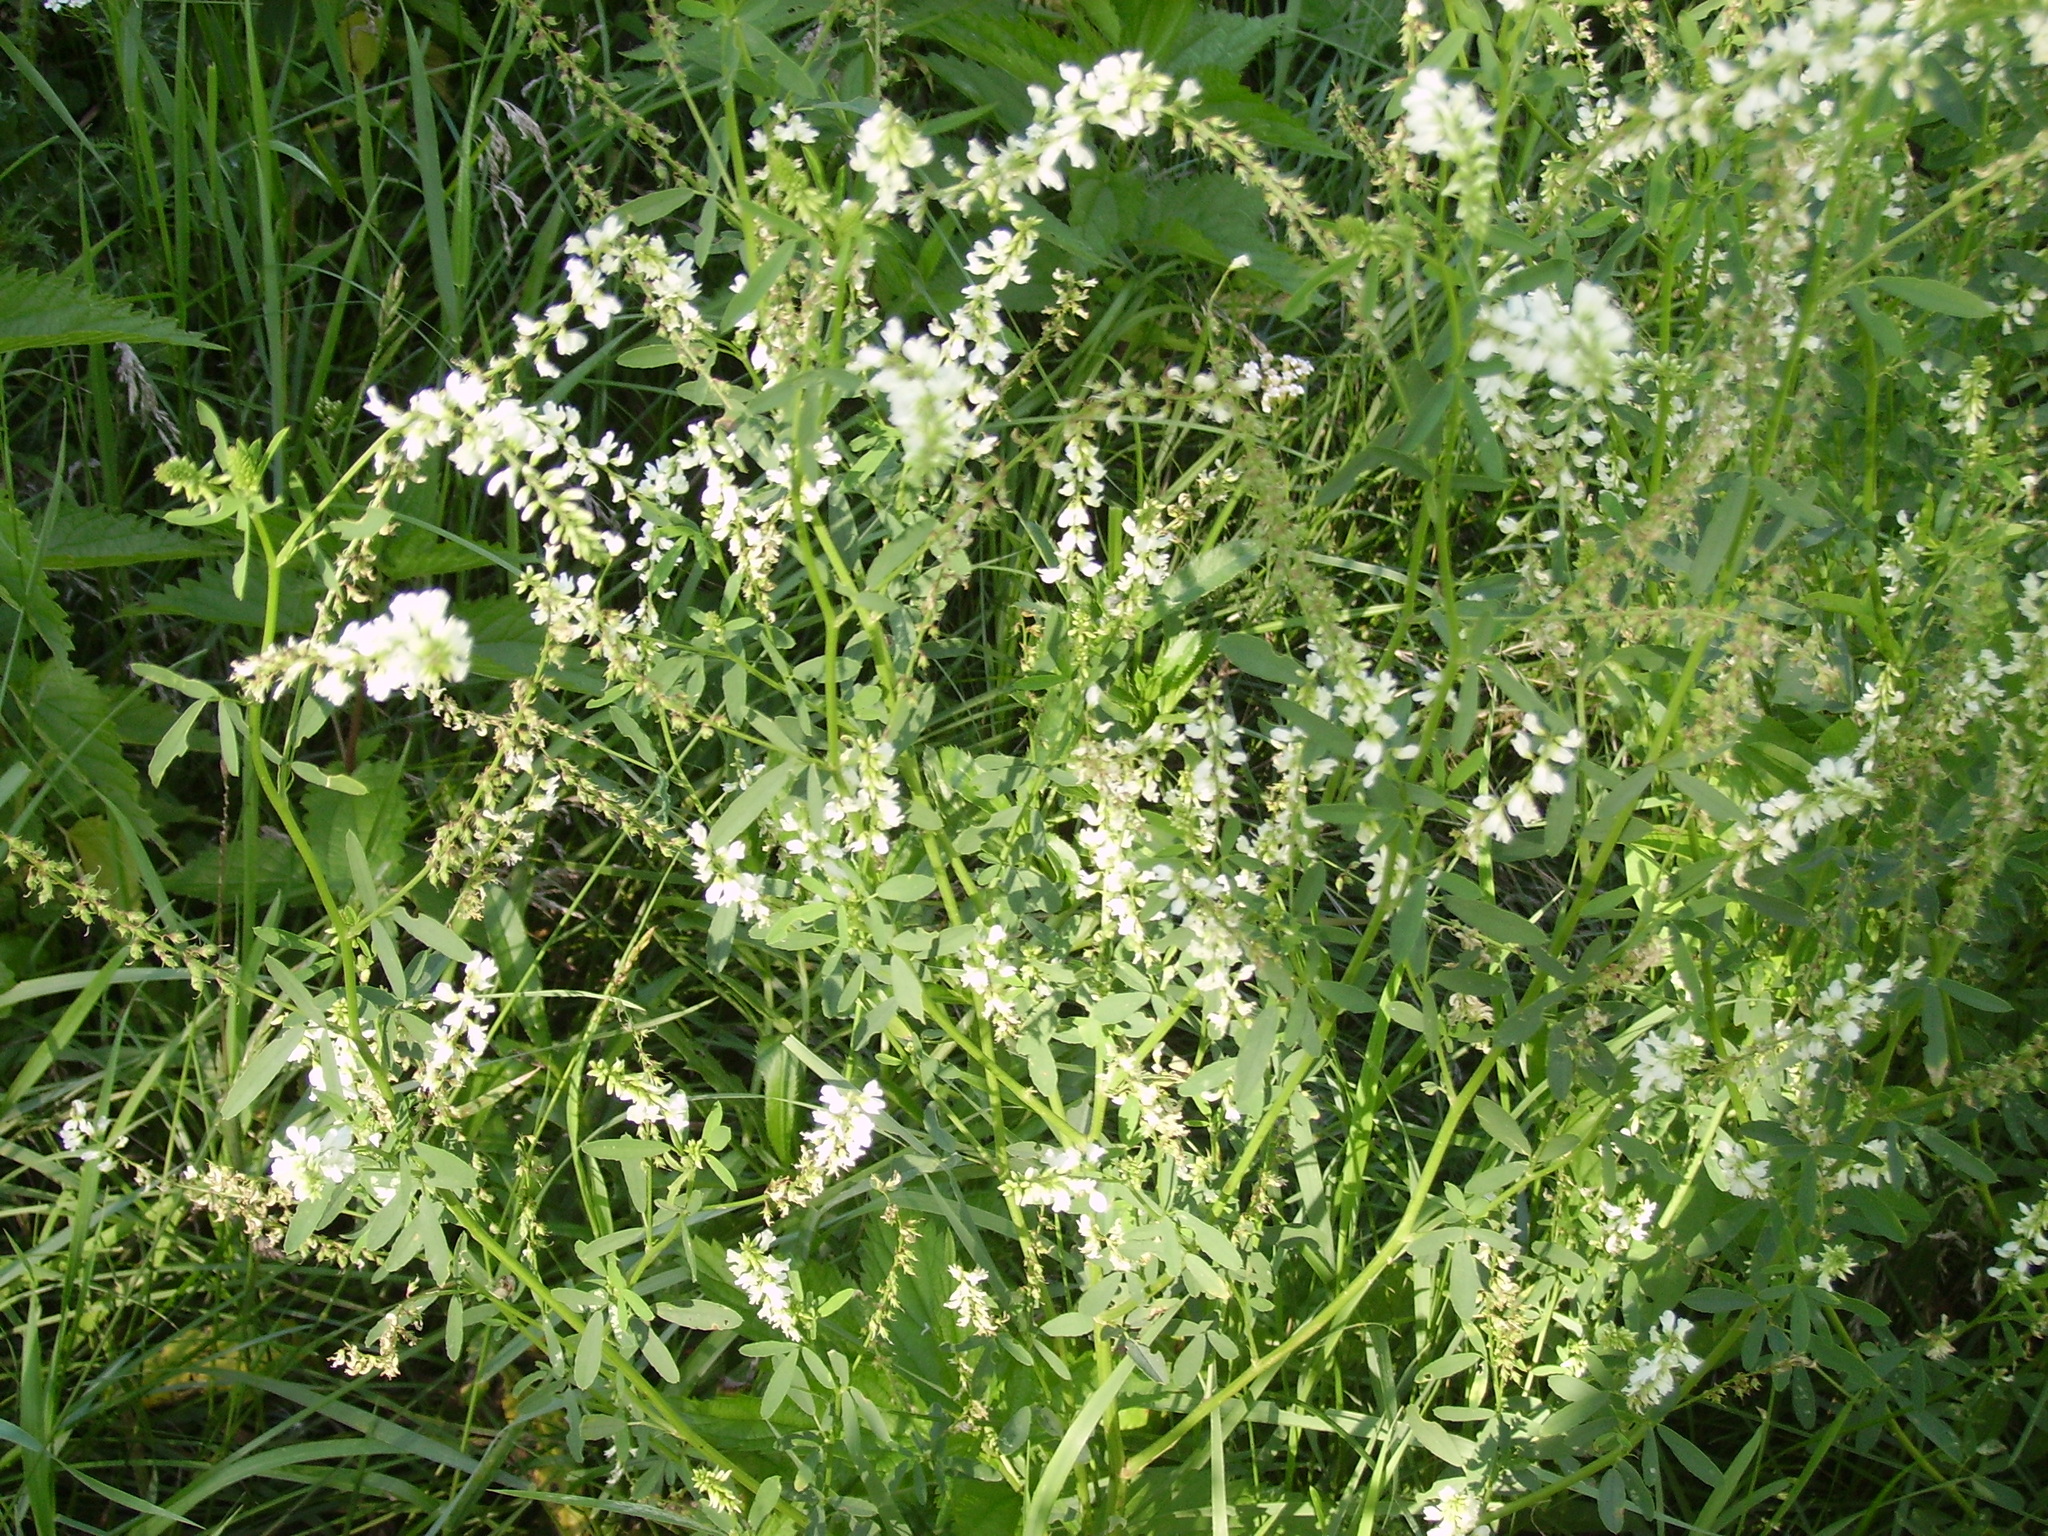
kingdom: Plantae
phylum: Tracheophyta
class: Magnoliopsida
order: Fabales
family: Fabaceae
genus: Melilotus
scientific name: Melilotus albus
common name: White melilot
